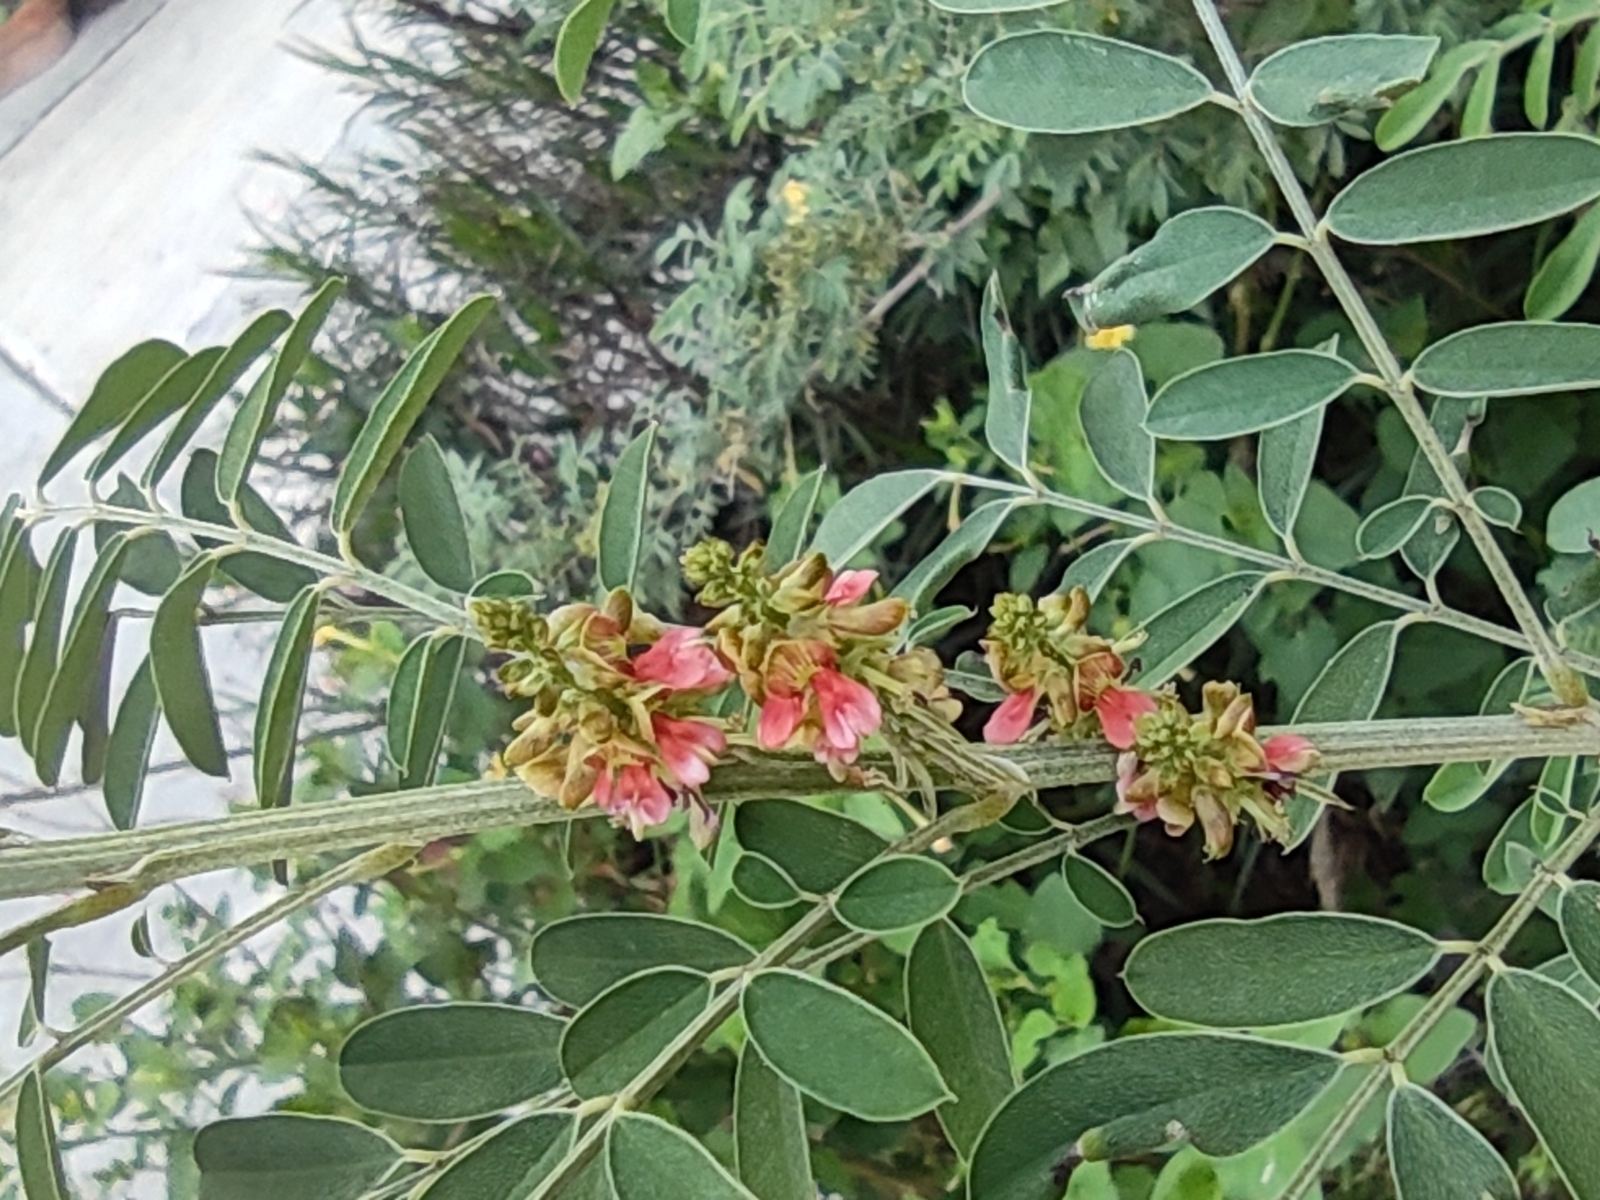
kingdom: Plantae
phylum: Tracheophyta
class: Magnoliopsida
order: Fabales
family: Fabaceae
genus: Indigofera
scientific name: Indigofera suffruticosa
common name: Anil de pasto
